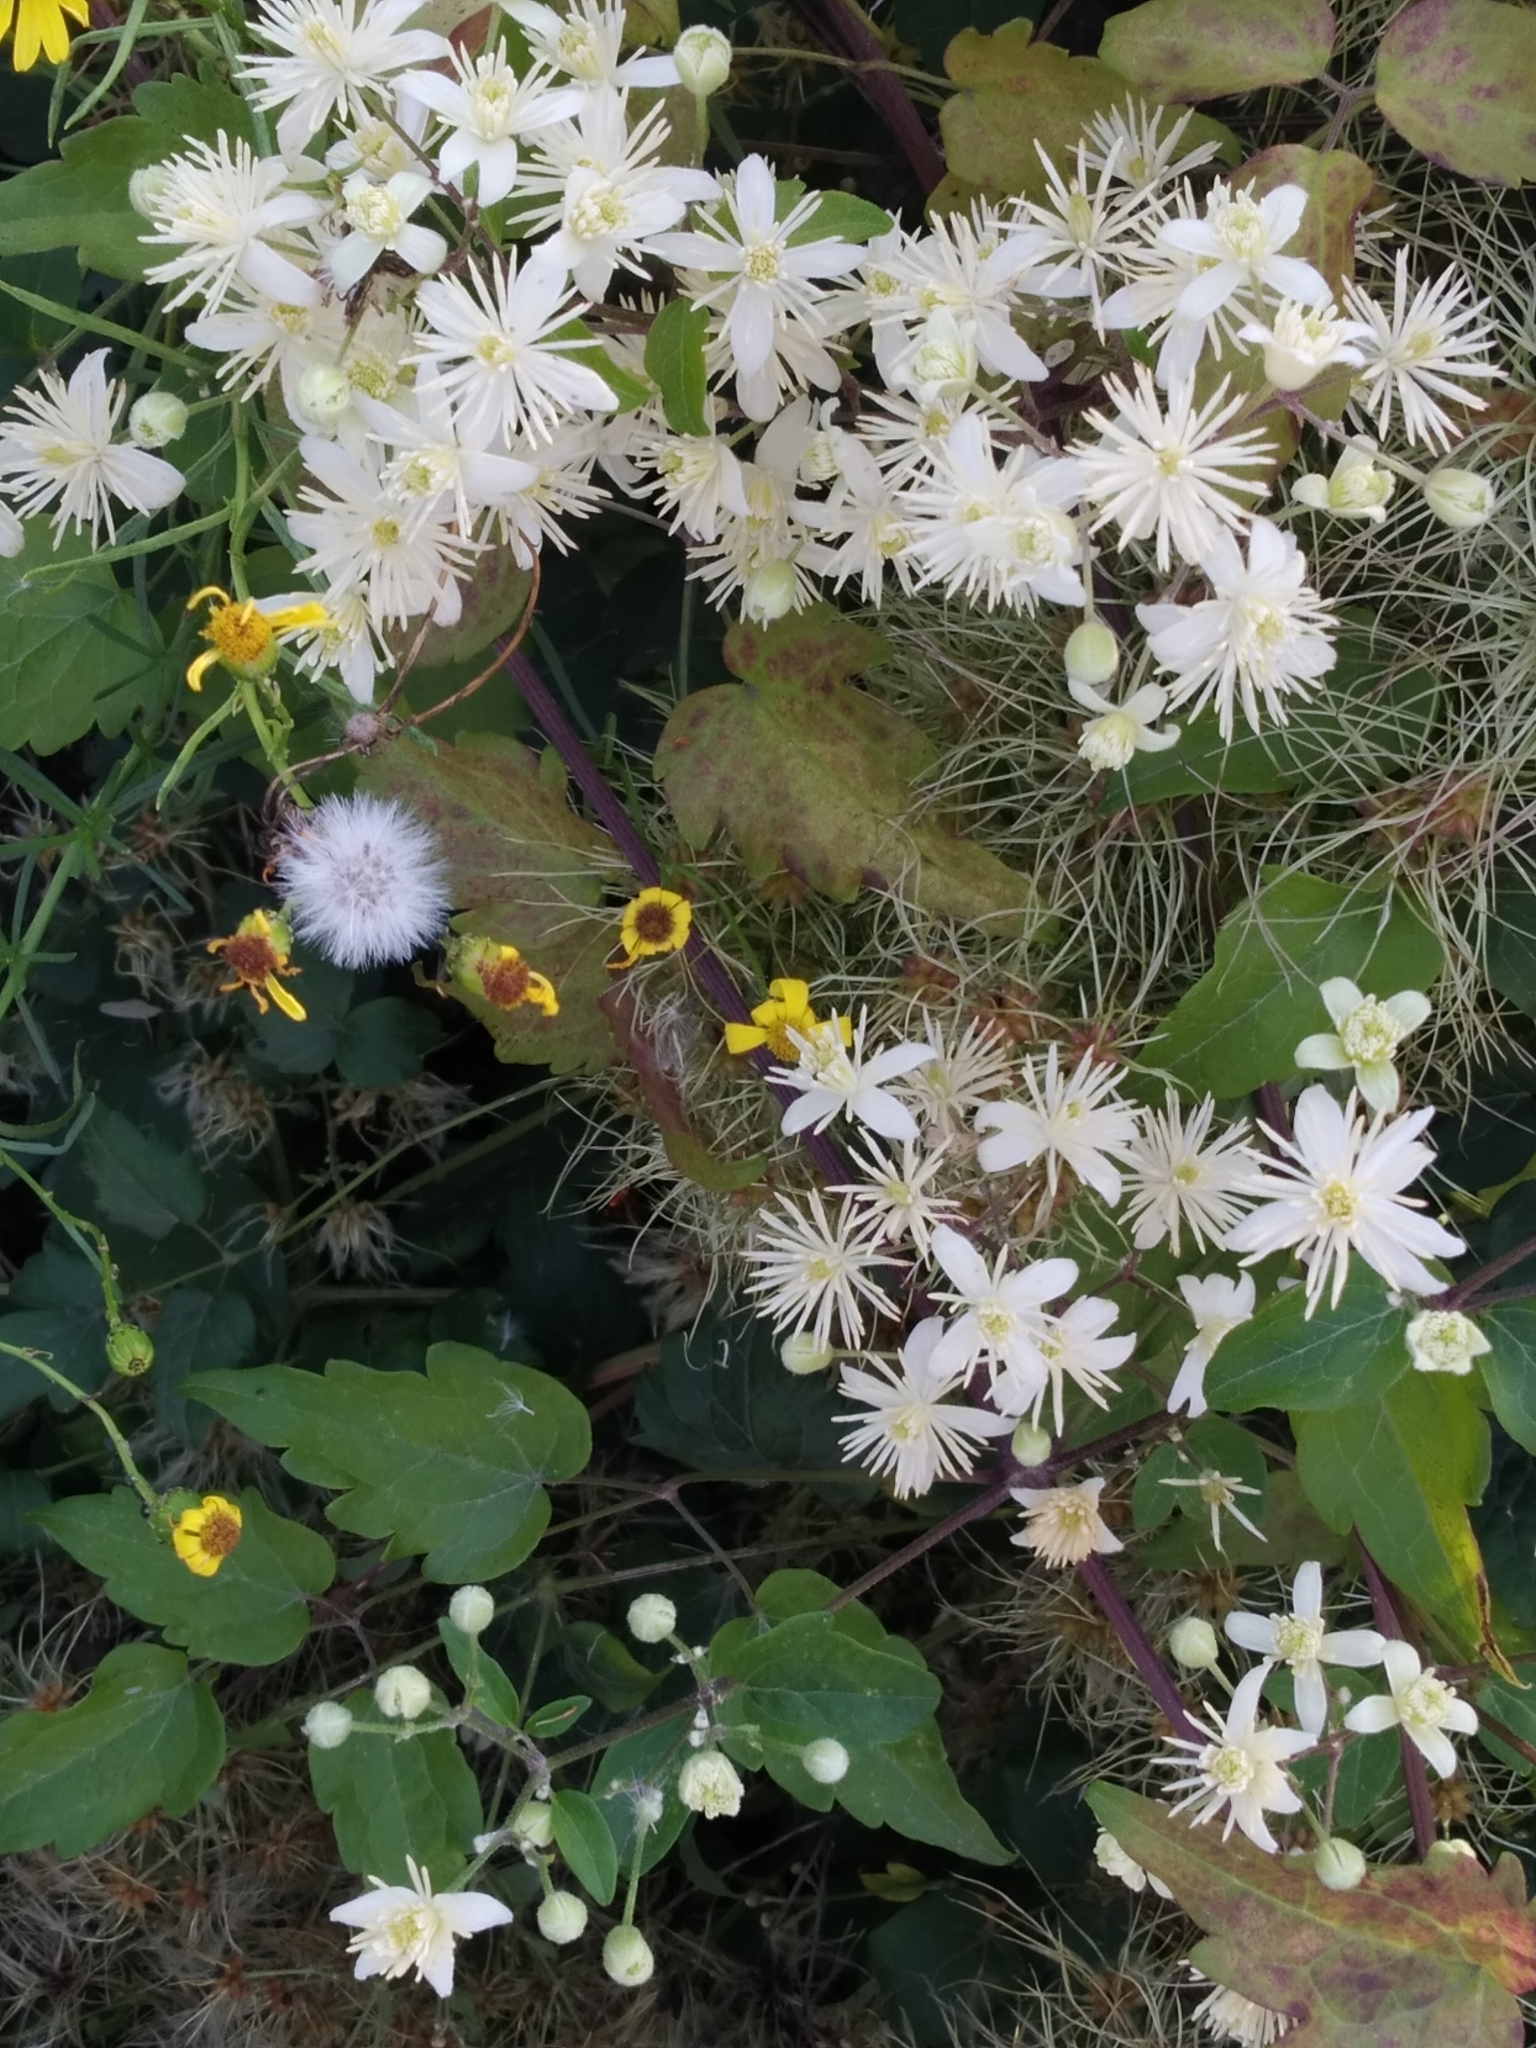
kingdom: Plantae
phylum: Tracheophyta
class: Magnoliopsida
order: Ranunculales
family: Ranunculaceae
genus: Clematis
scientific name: Clematis vitalba
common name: Evergreen clematis
